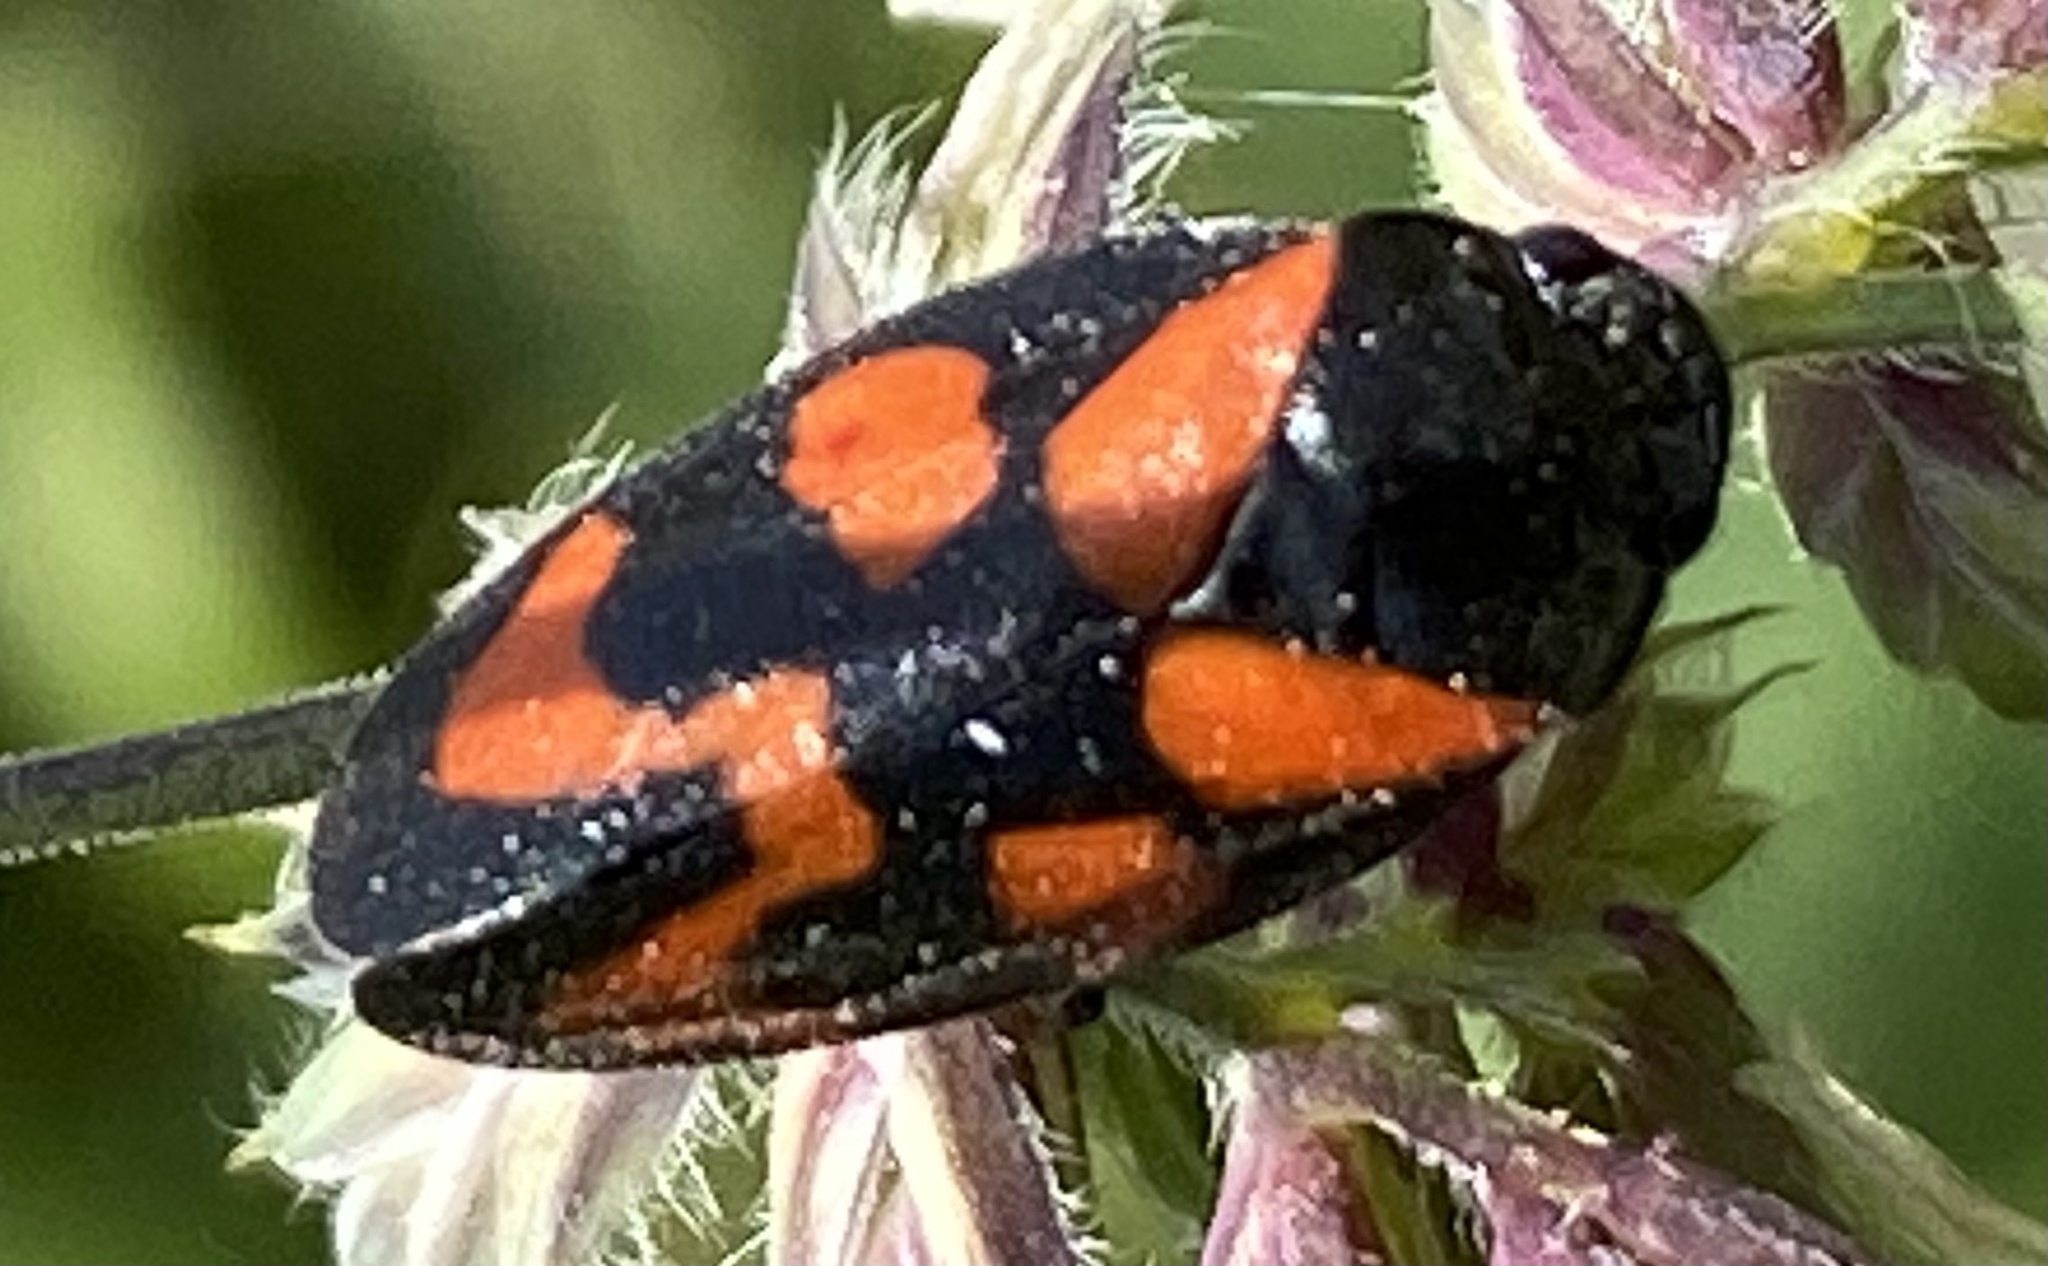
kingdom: Animalia
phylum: Arthropoda
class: Insecta
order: Hemiptera
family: Cercopidae
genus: Cercopis
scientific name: Cercopis vulnerata
